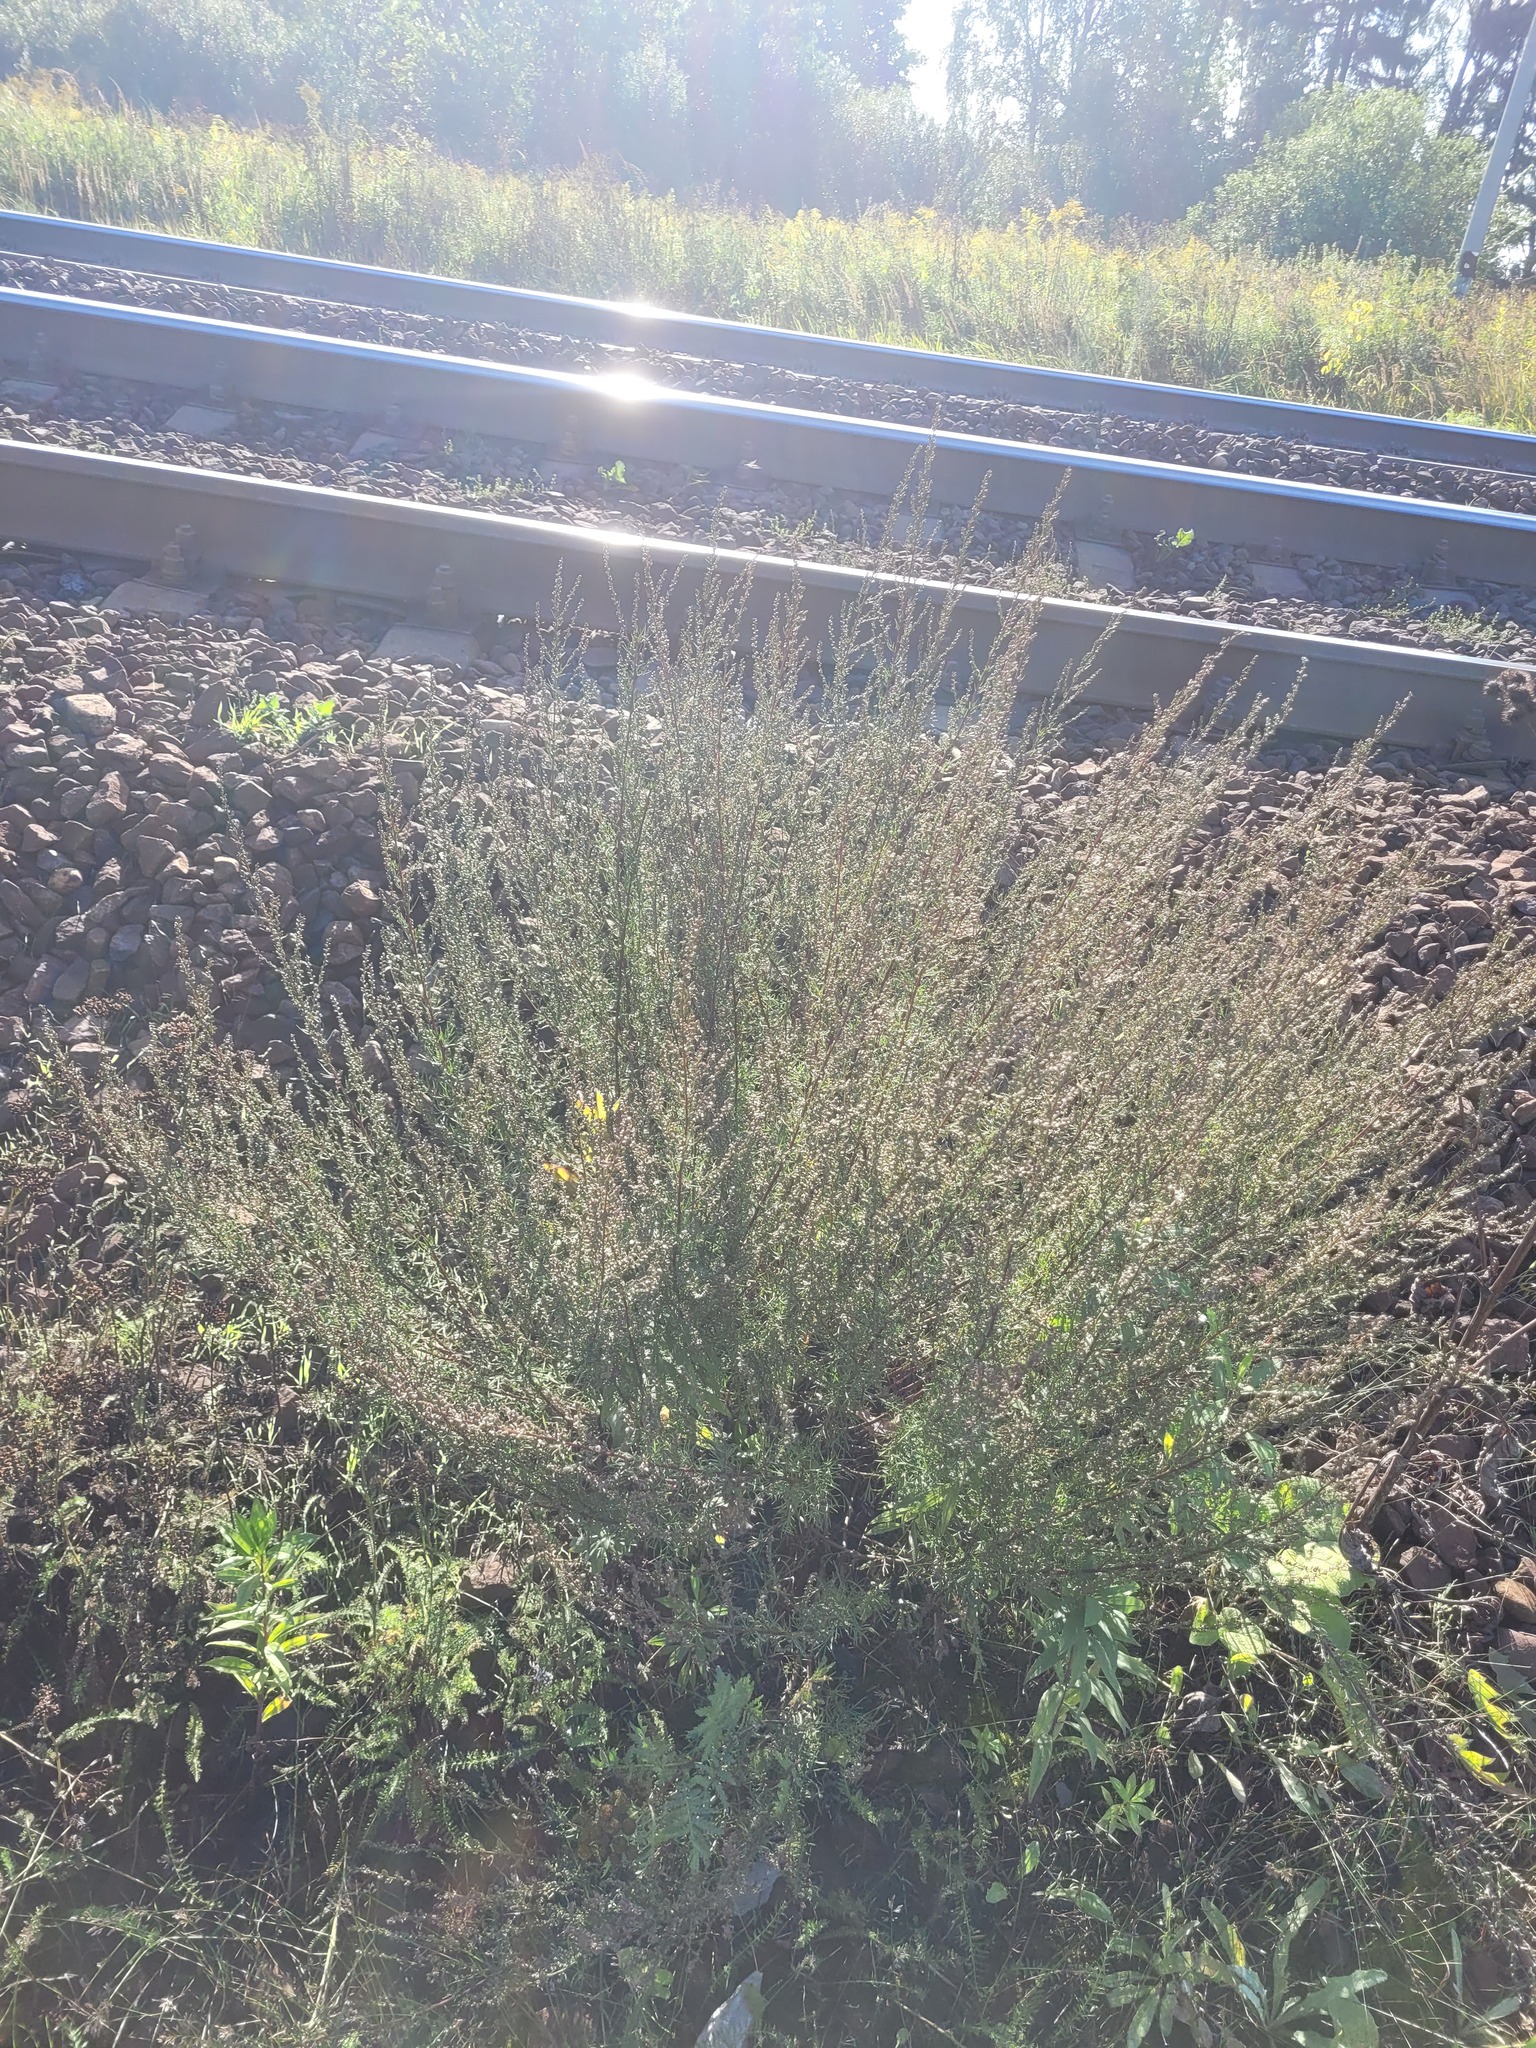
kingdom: Plantae
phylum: Tracheophyta
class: Magnoliopsida
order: Asterales
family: Asteraceae
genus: Artemisia
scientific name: Artemisia campestris
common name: Field wormwood
